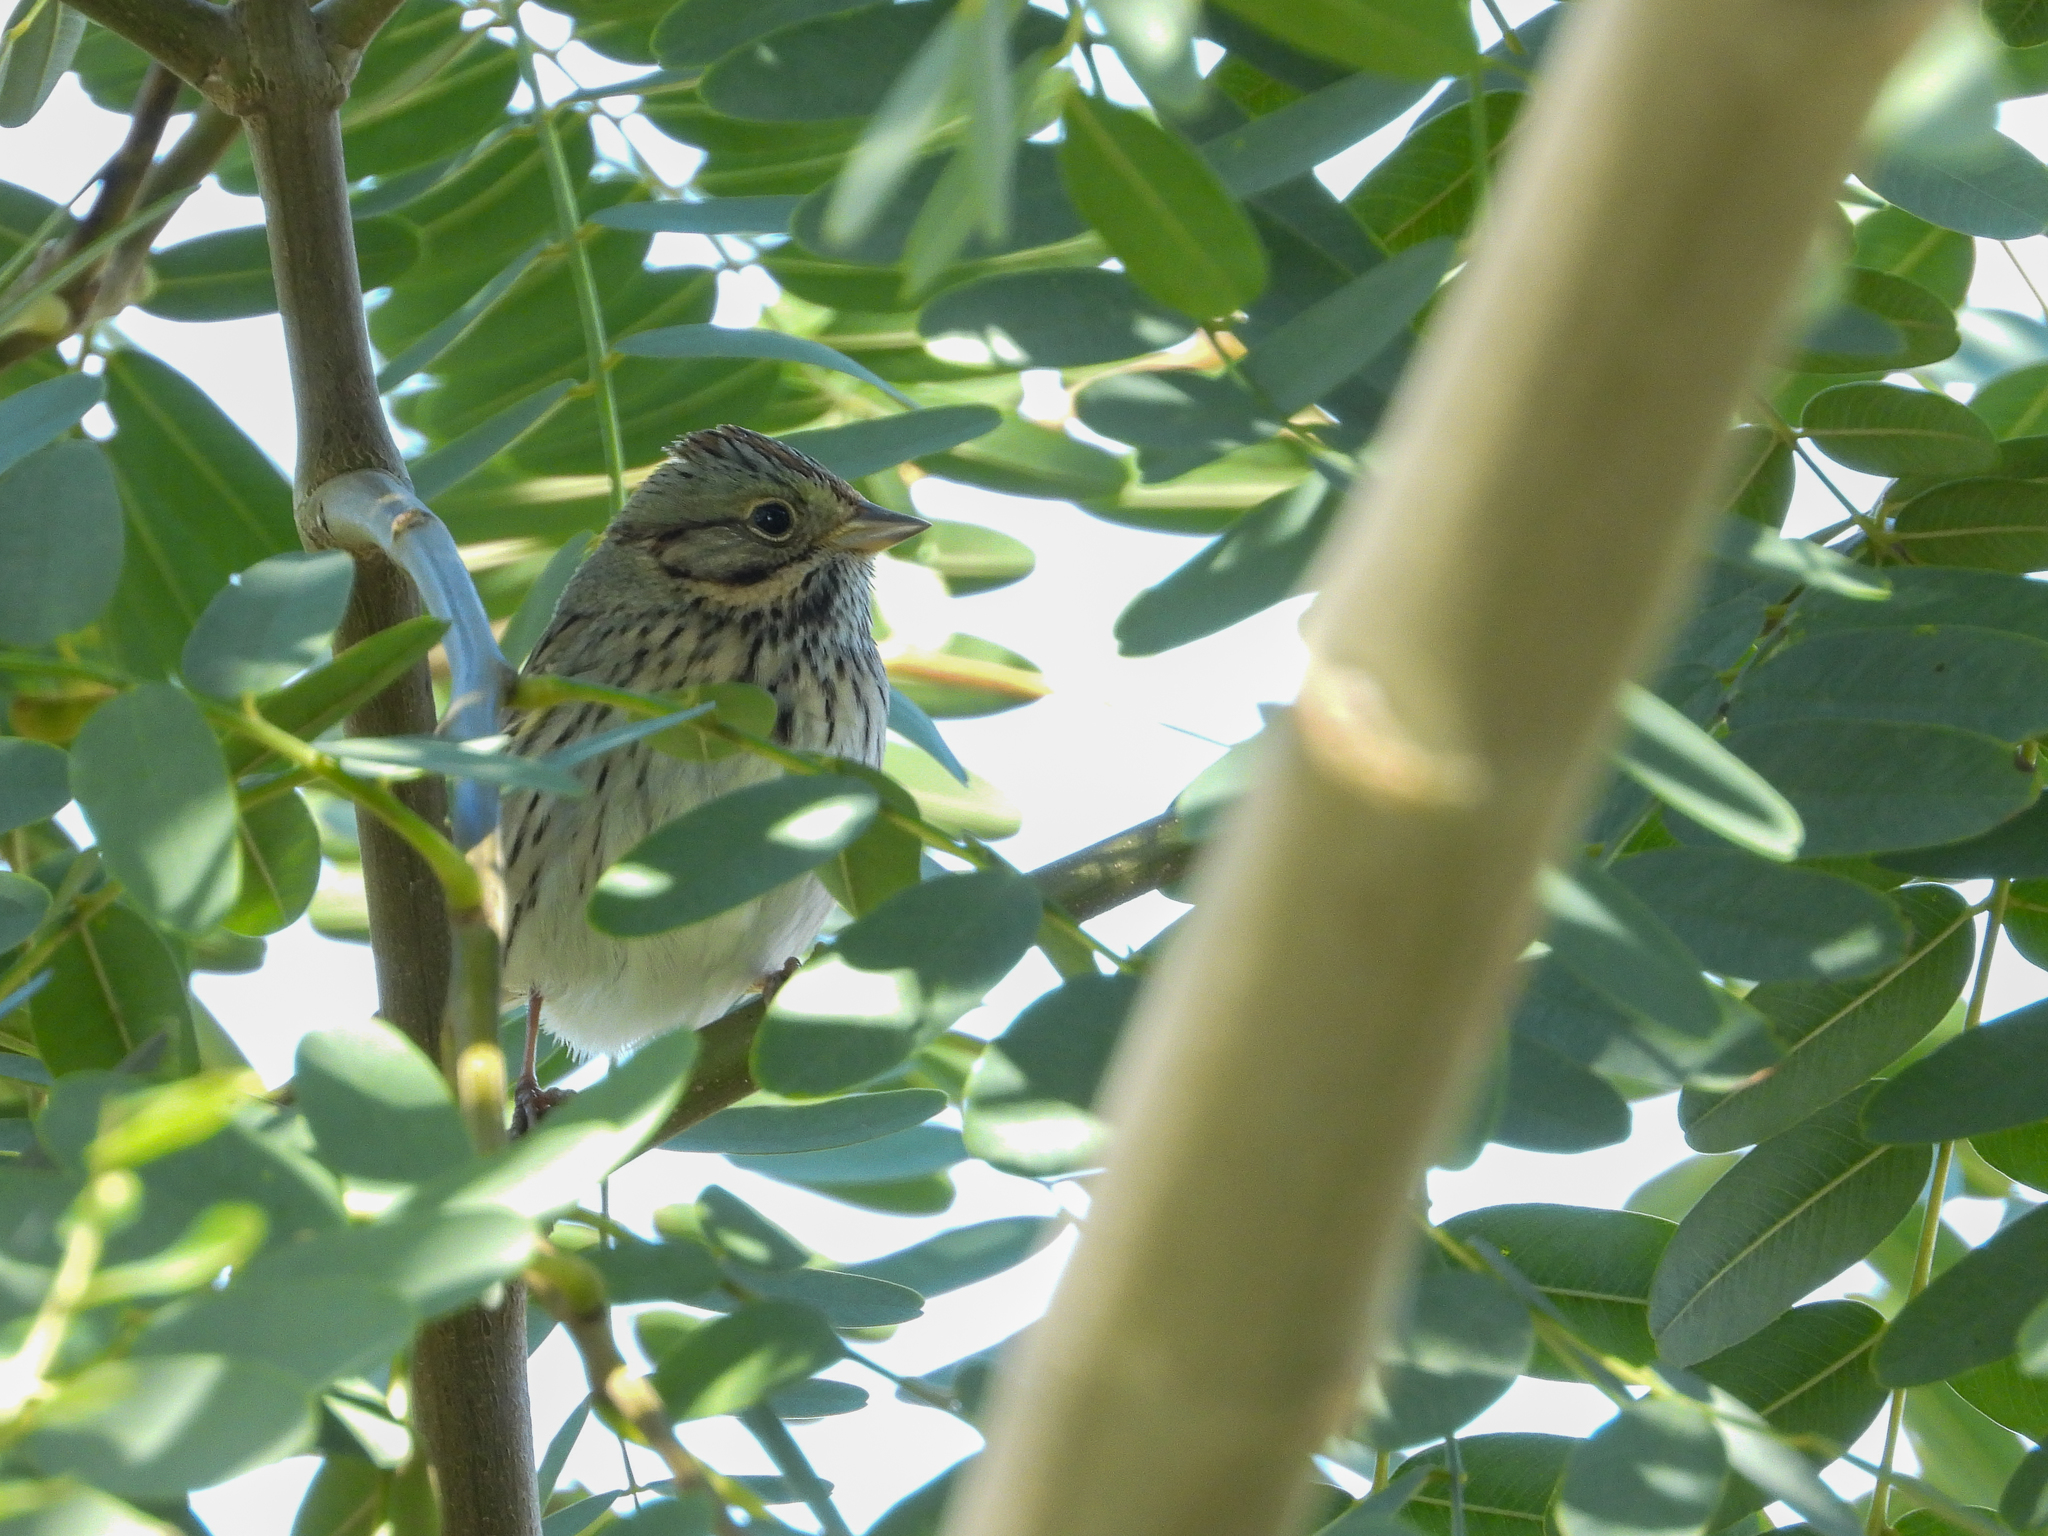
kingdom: Animalia
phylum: Chordata
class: Aves
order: Passeriformes
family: Passerellidae
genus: Melospiza
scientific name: Melospiza lincolnii
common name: Lincoln's sparrow
